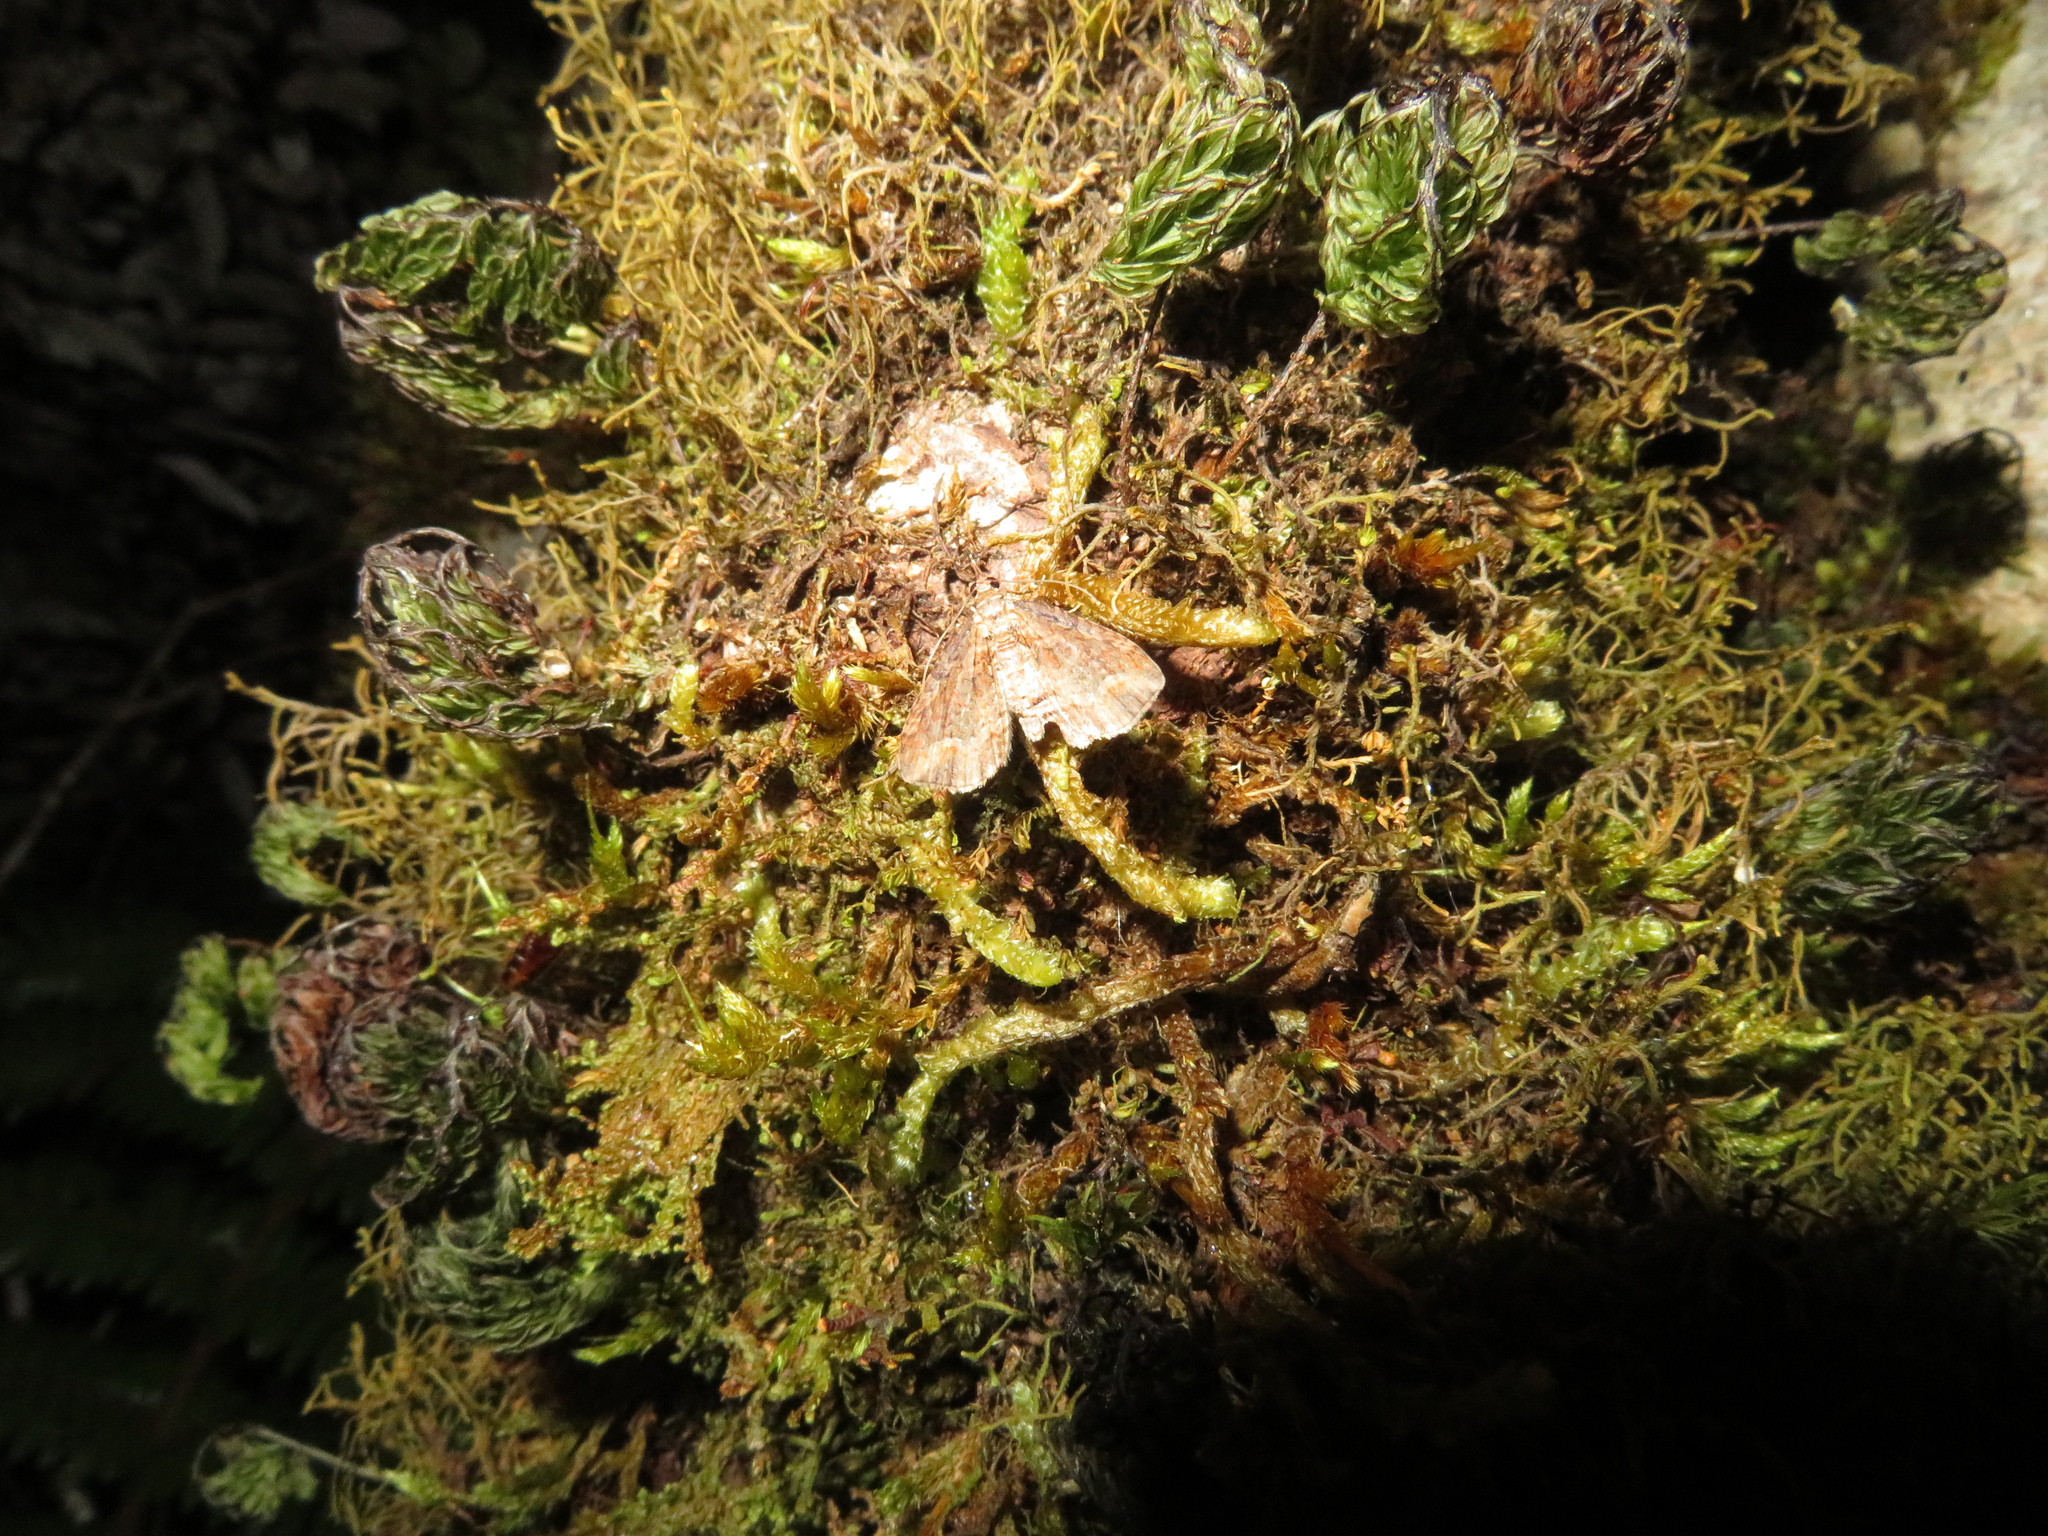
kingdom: Animalia
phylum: Arthropoda
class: Insecta
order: Lepidoptera
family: Geometridae
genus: Chloroclystis
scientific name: Chloroclystis filata
